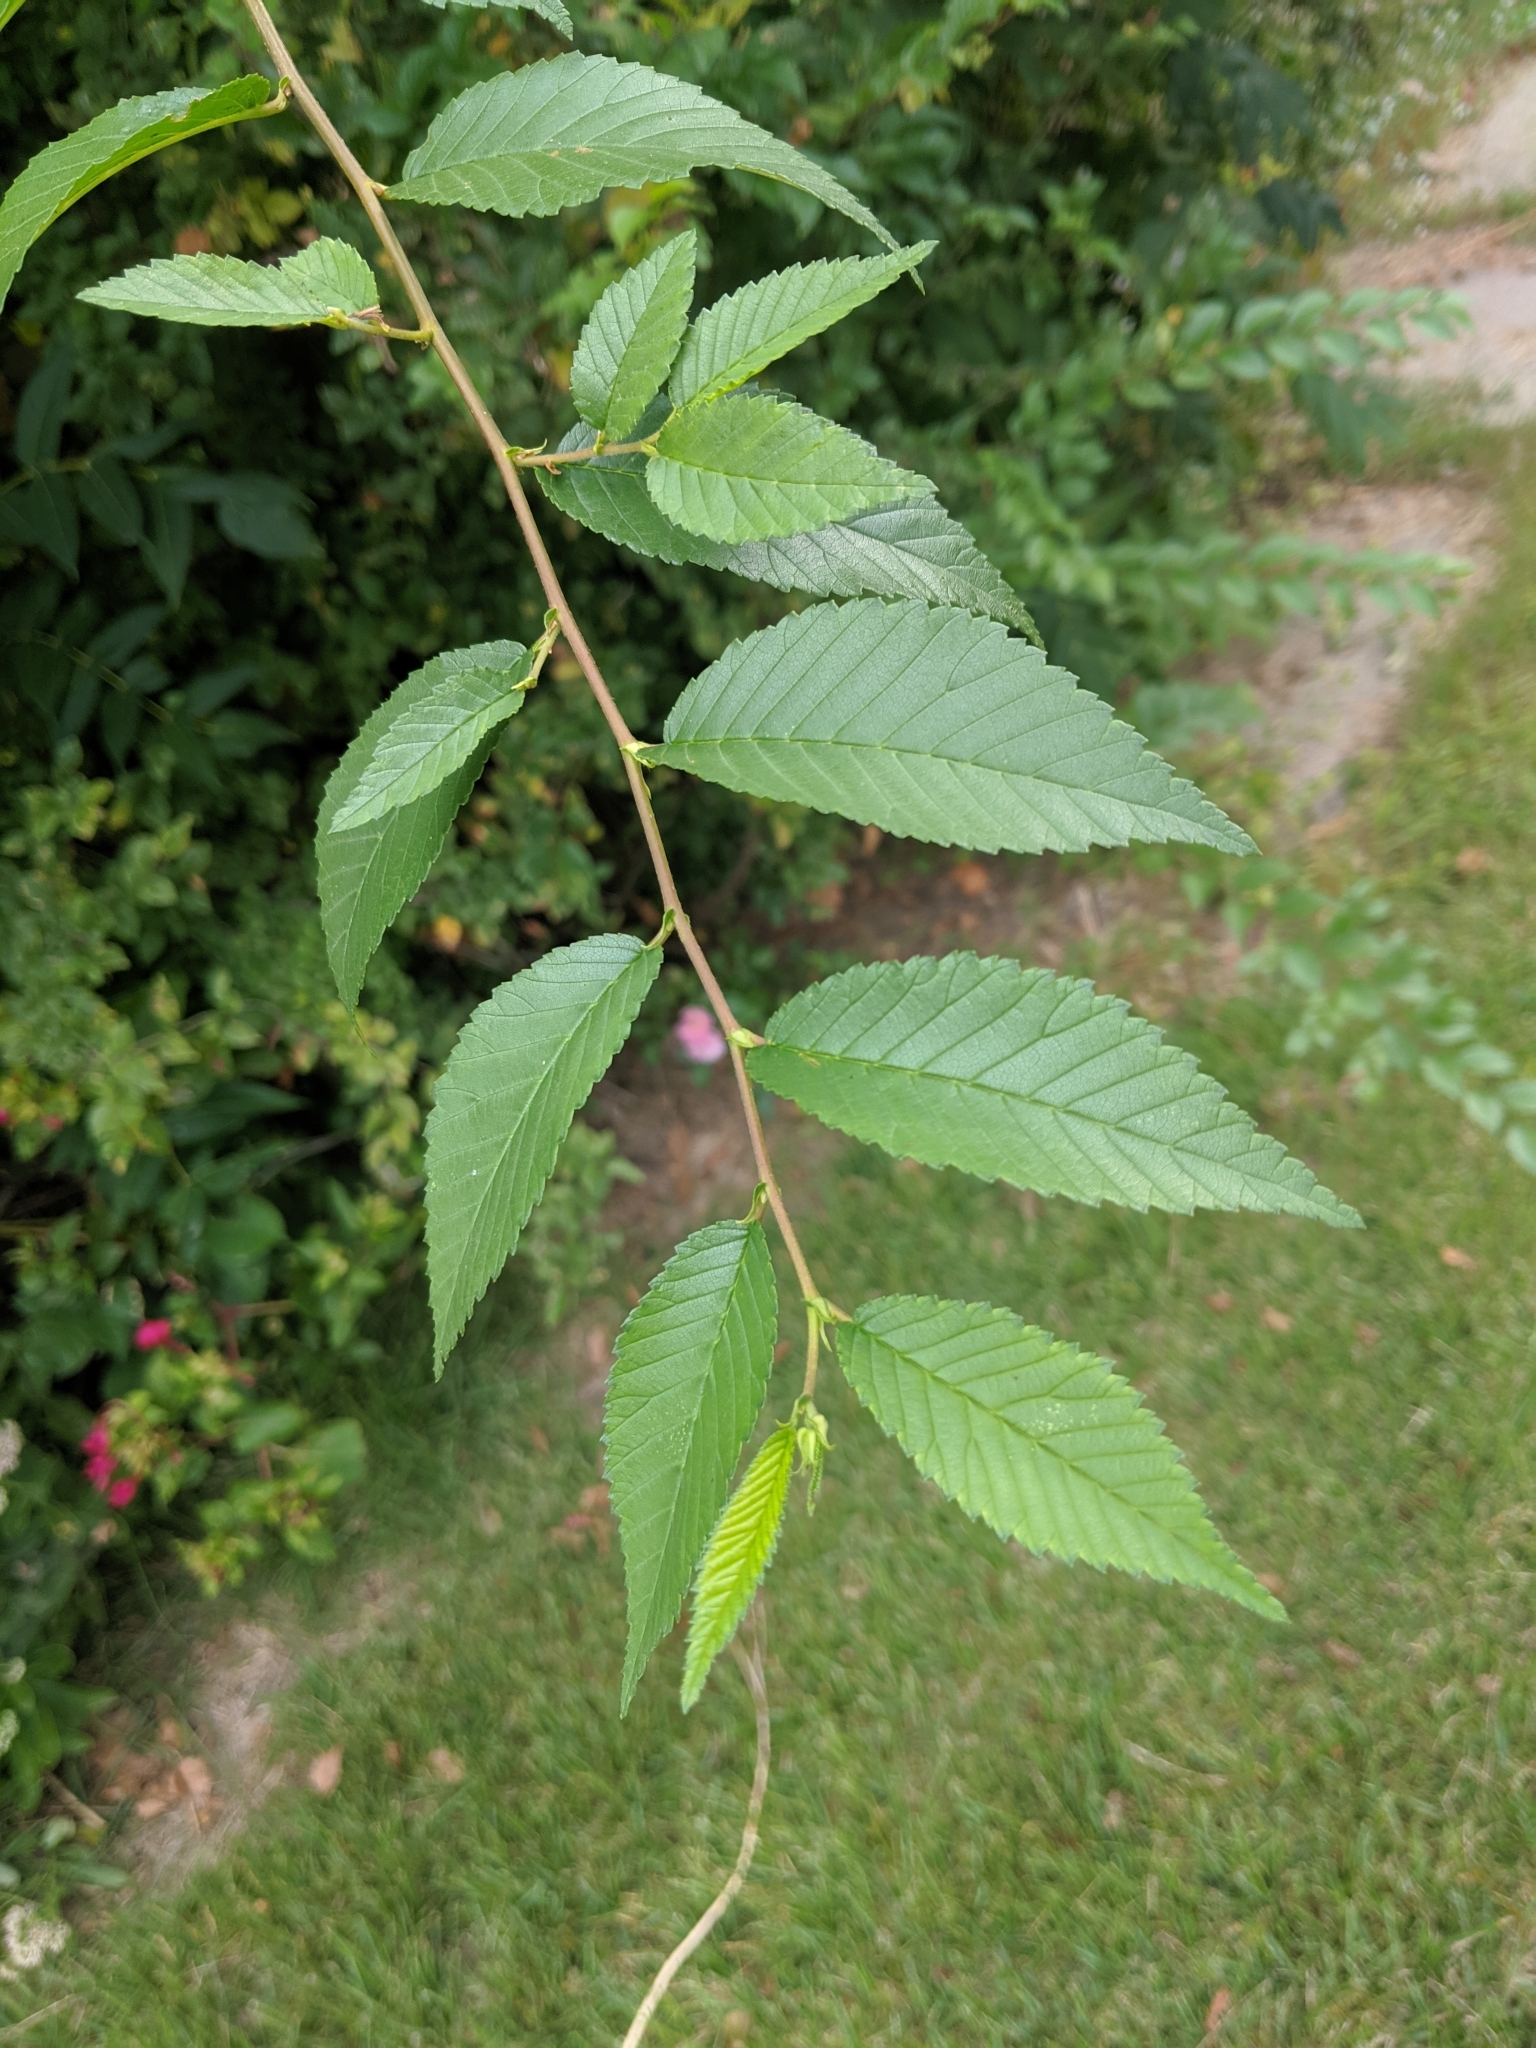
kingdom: Plantae
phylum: Tracheophyta
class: Magnoliopsida
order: Rosales
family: Ulmaceae
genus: Ulmus
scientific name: Ulmus pumila
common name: Siberian elm
